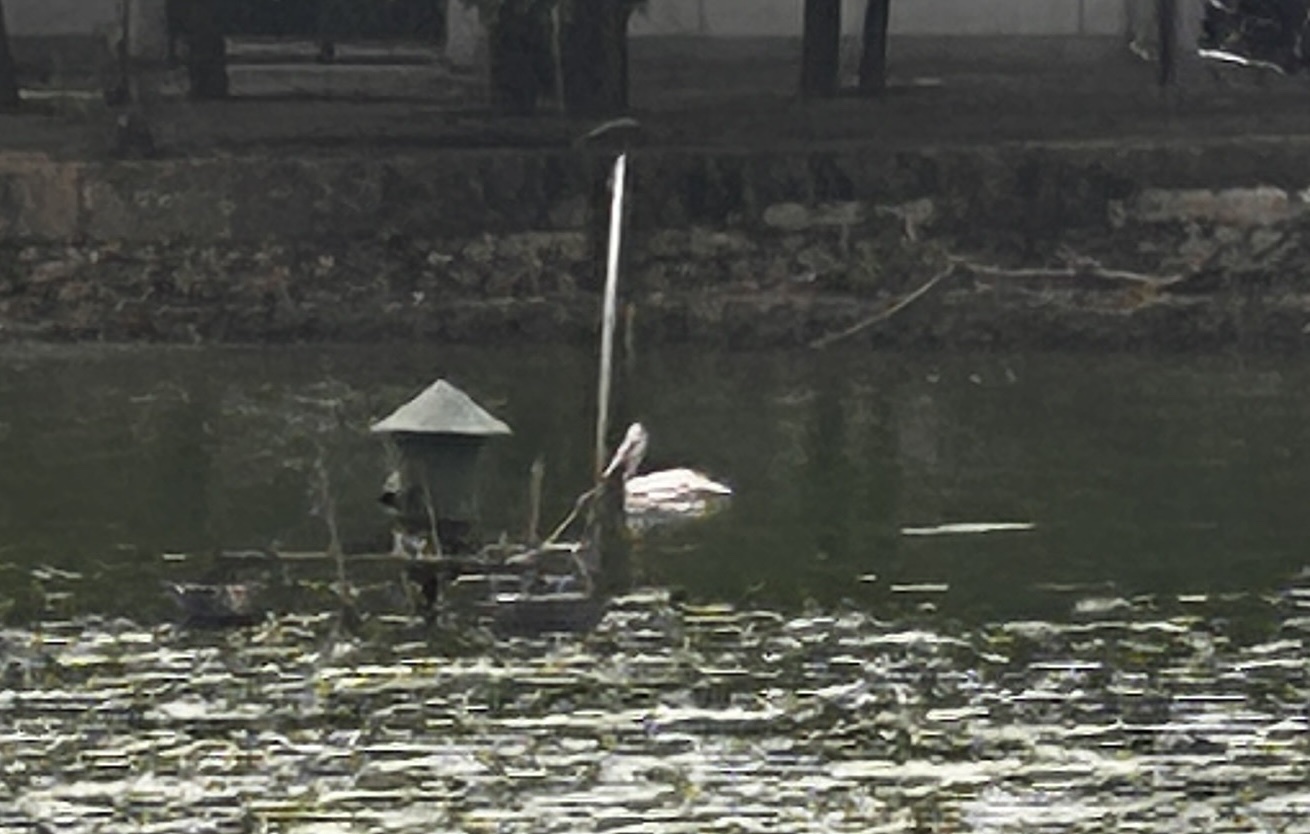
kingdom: Animalia
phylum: Chordata
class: Aves
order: Pelecaniformes
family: Pelecanidae
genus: Pelecanus
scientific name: Pelecanus philippensis
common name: Spot-billed pelican
